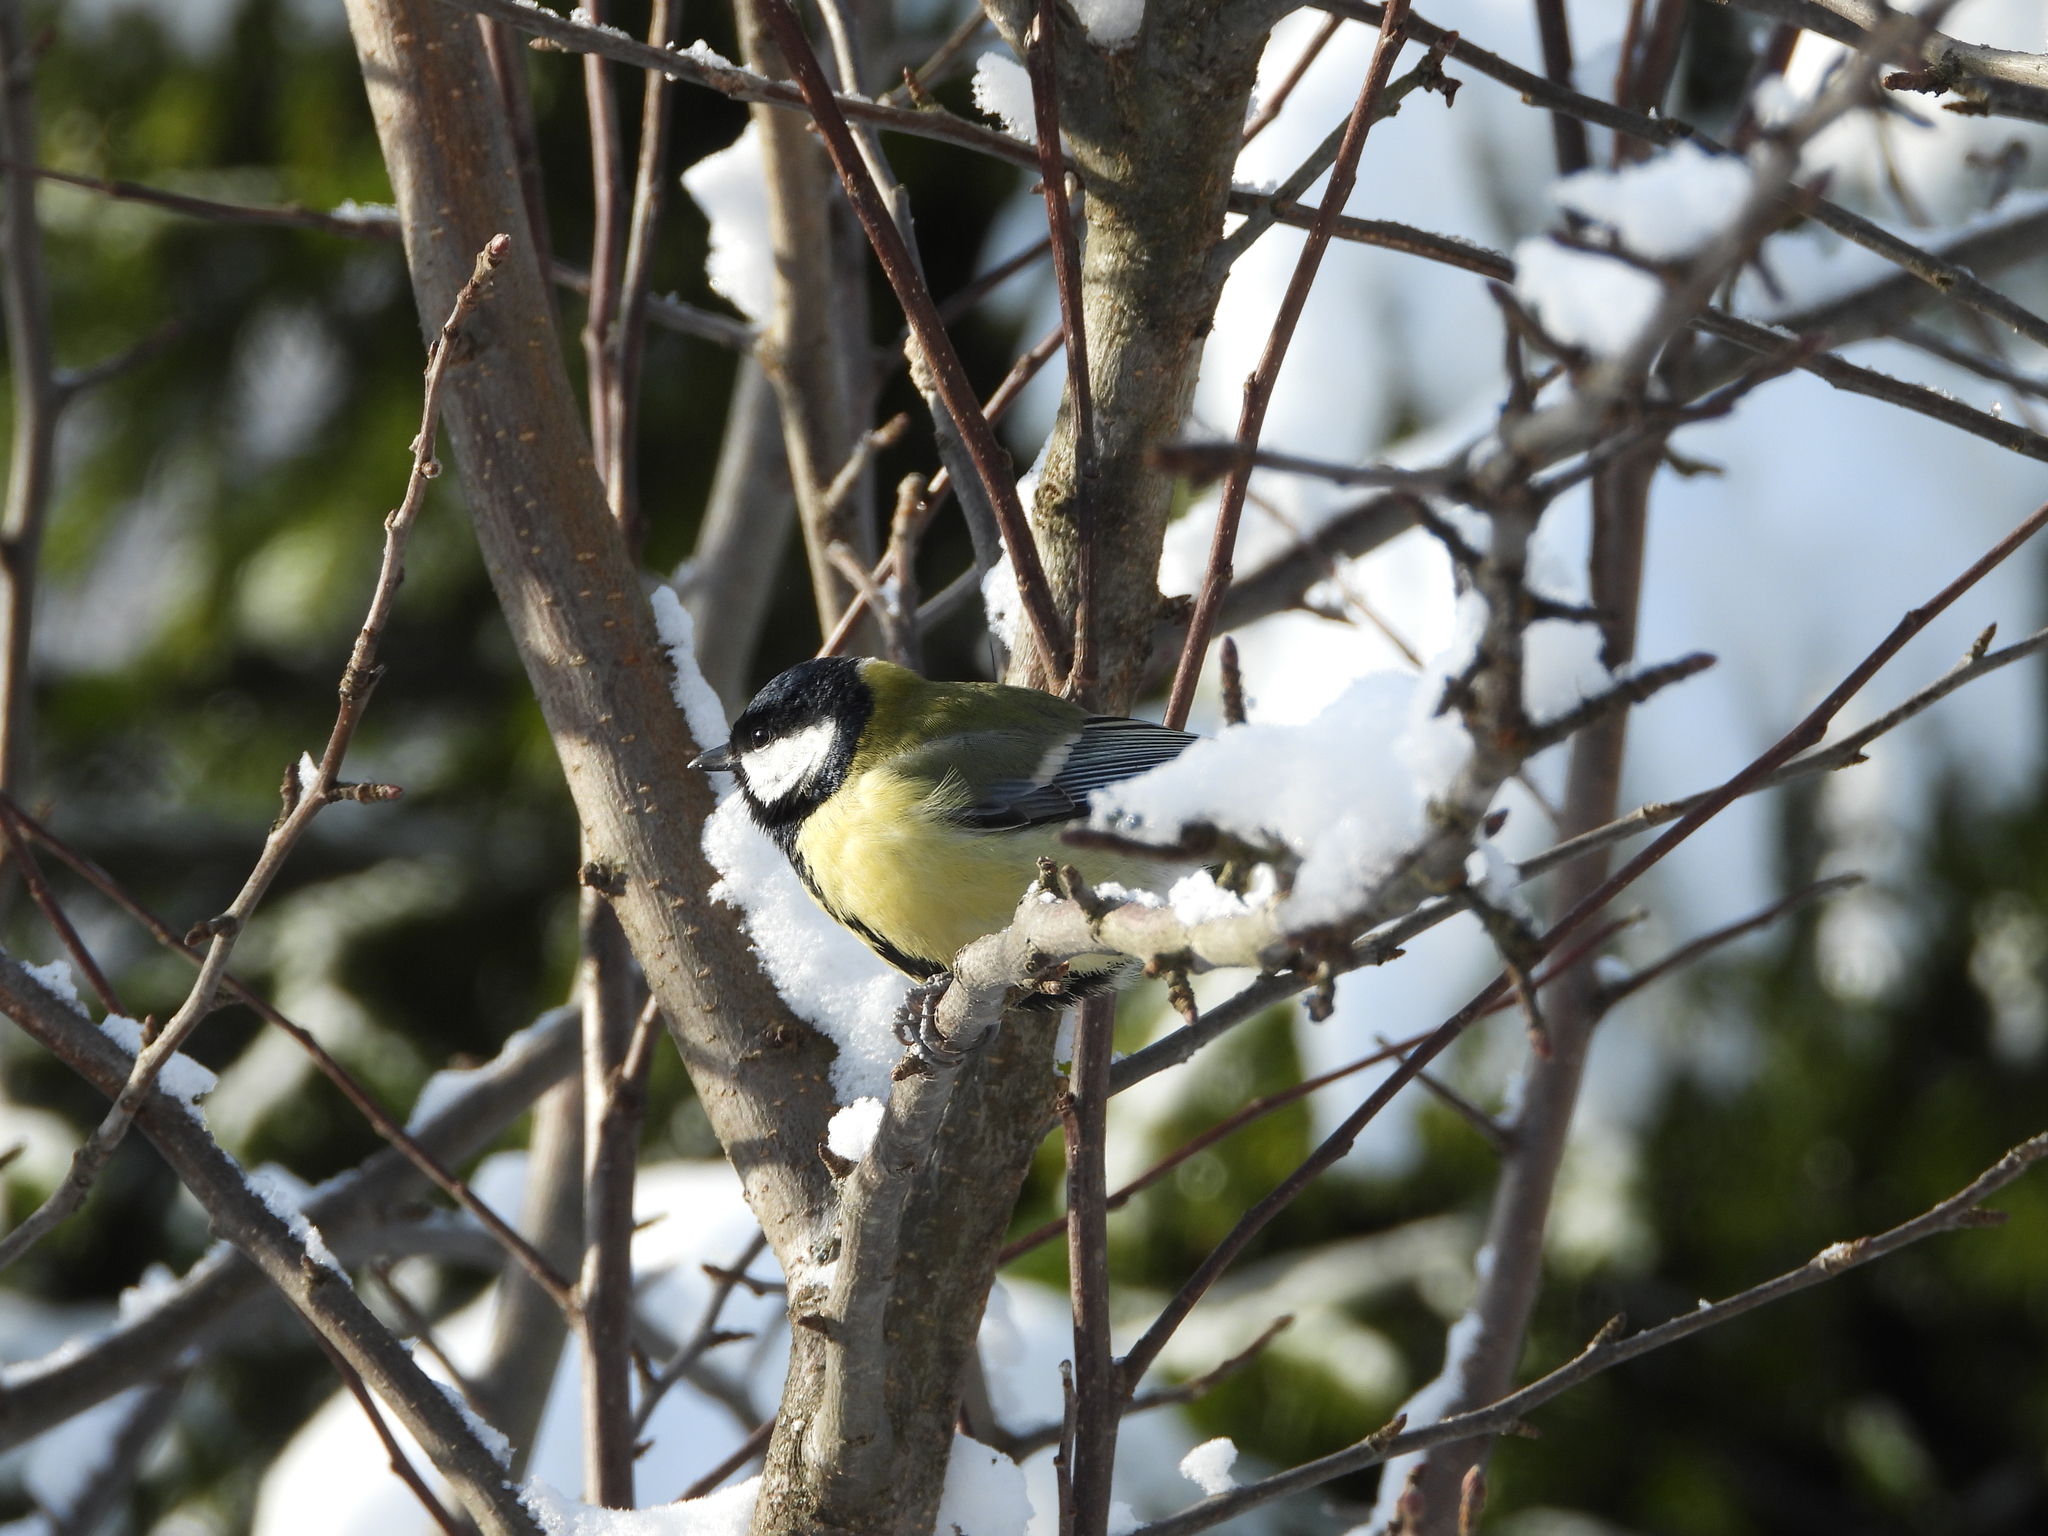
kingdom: Animalia
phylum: Chordata
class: Aves
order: Passeriformes
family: Paridae
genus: Parus
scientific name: Parus major
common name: Great tit
